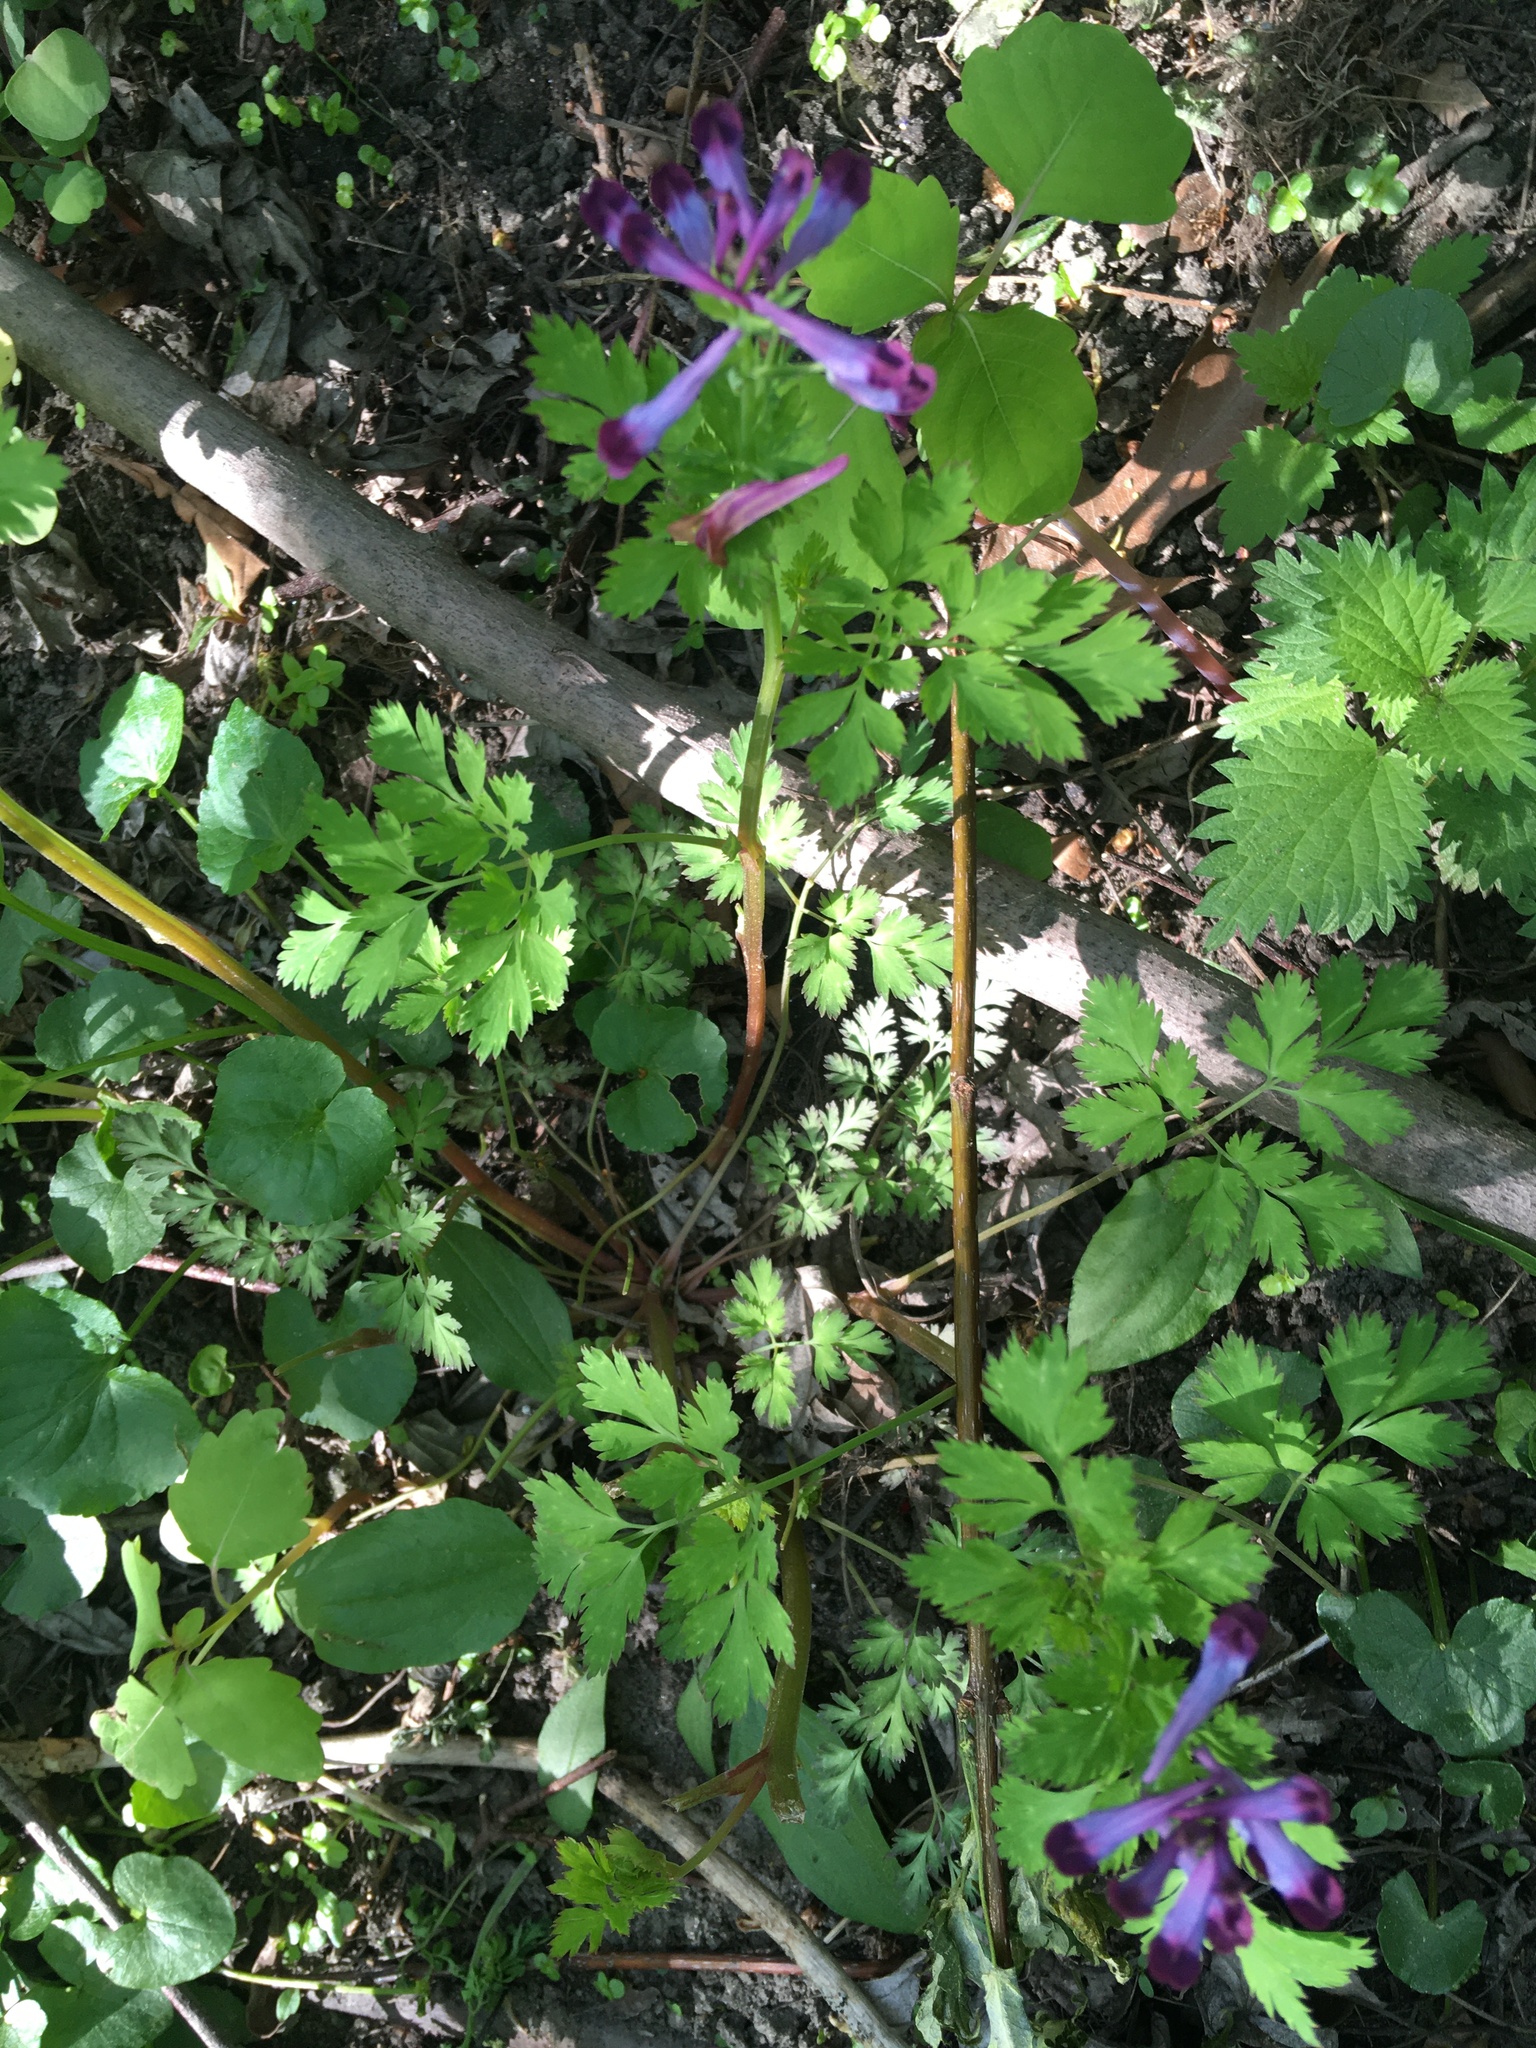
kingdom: Plantae
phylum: Tracheophyta
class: Magnoliopsida
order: Ranunculales
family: Papaveraceae
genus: Corydalis
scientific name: Corydalis incisa
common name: Incised fumewort
